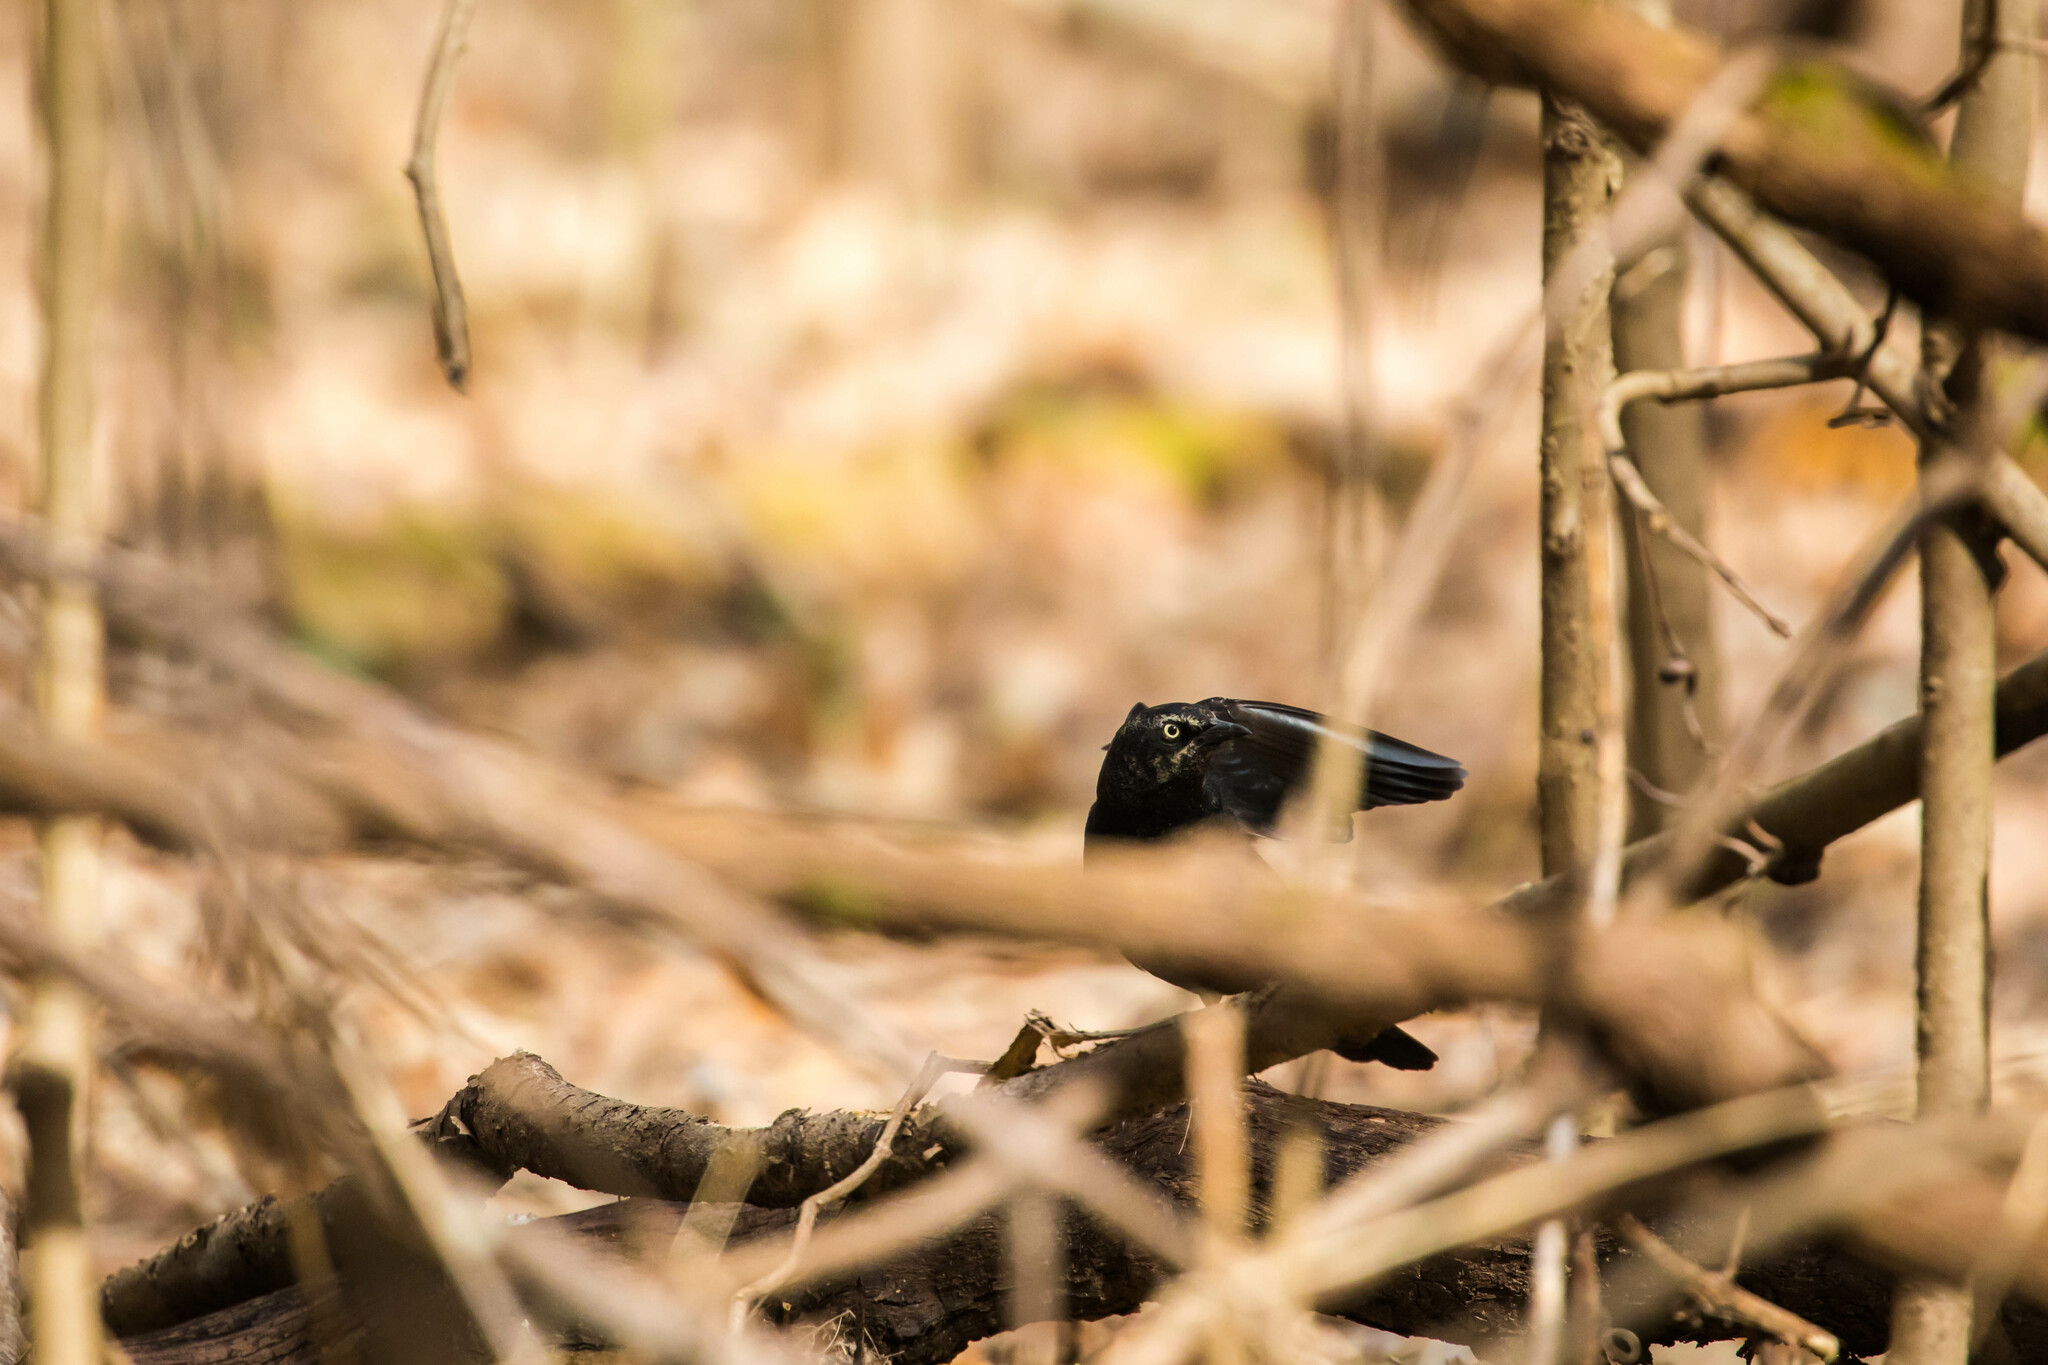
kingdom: Animalia
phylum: Chordata
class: Aves
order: Passeriformes
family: Icteridae
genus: Euphagus
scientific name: Euphagus carolinus
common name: Rusty blackbird
